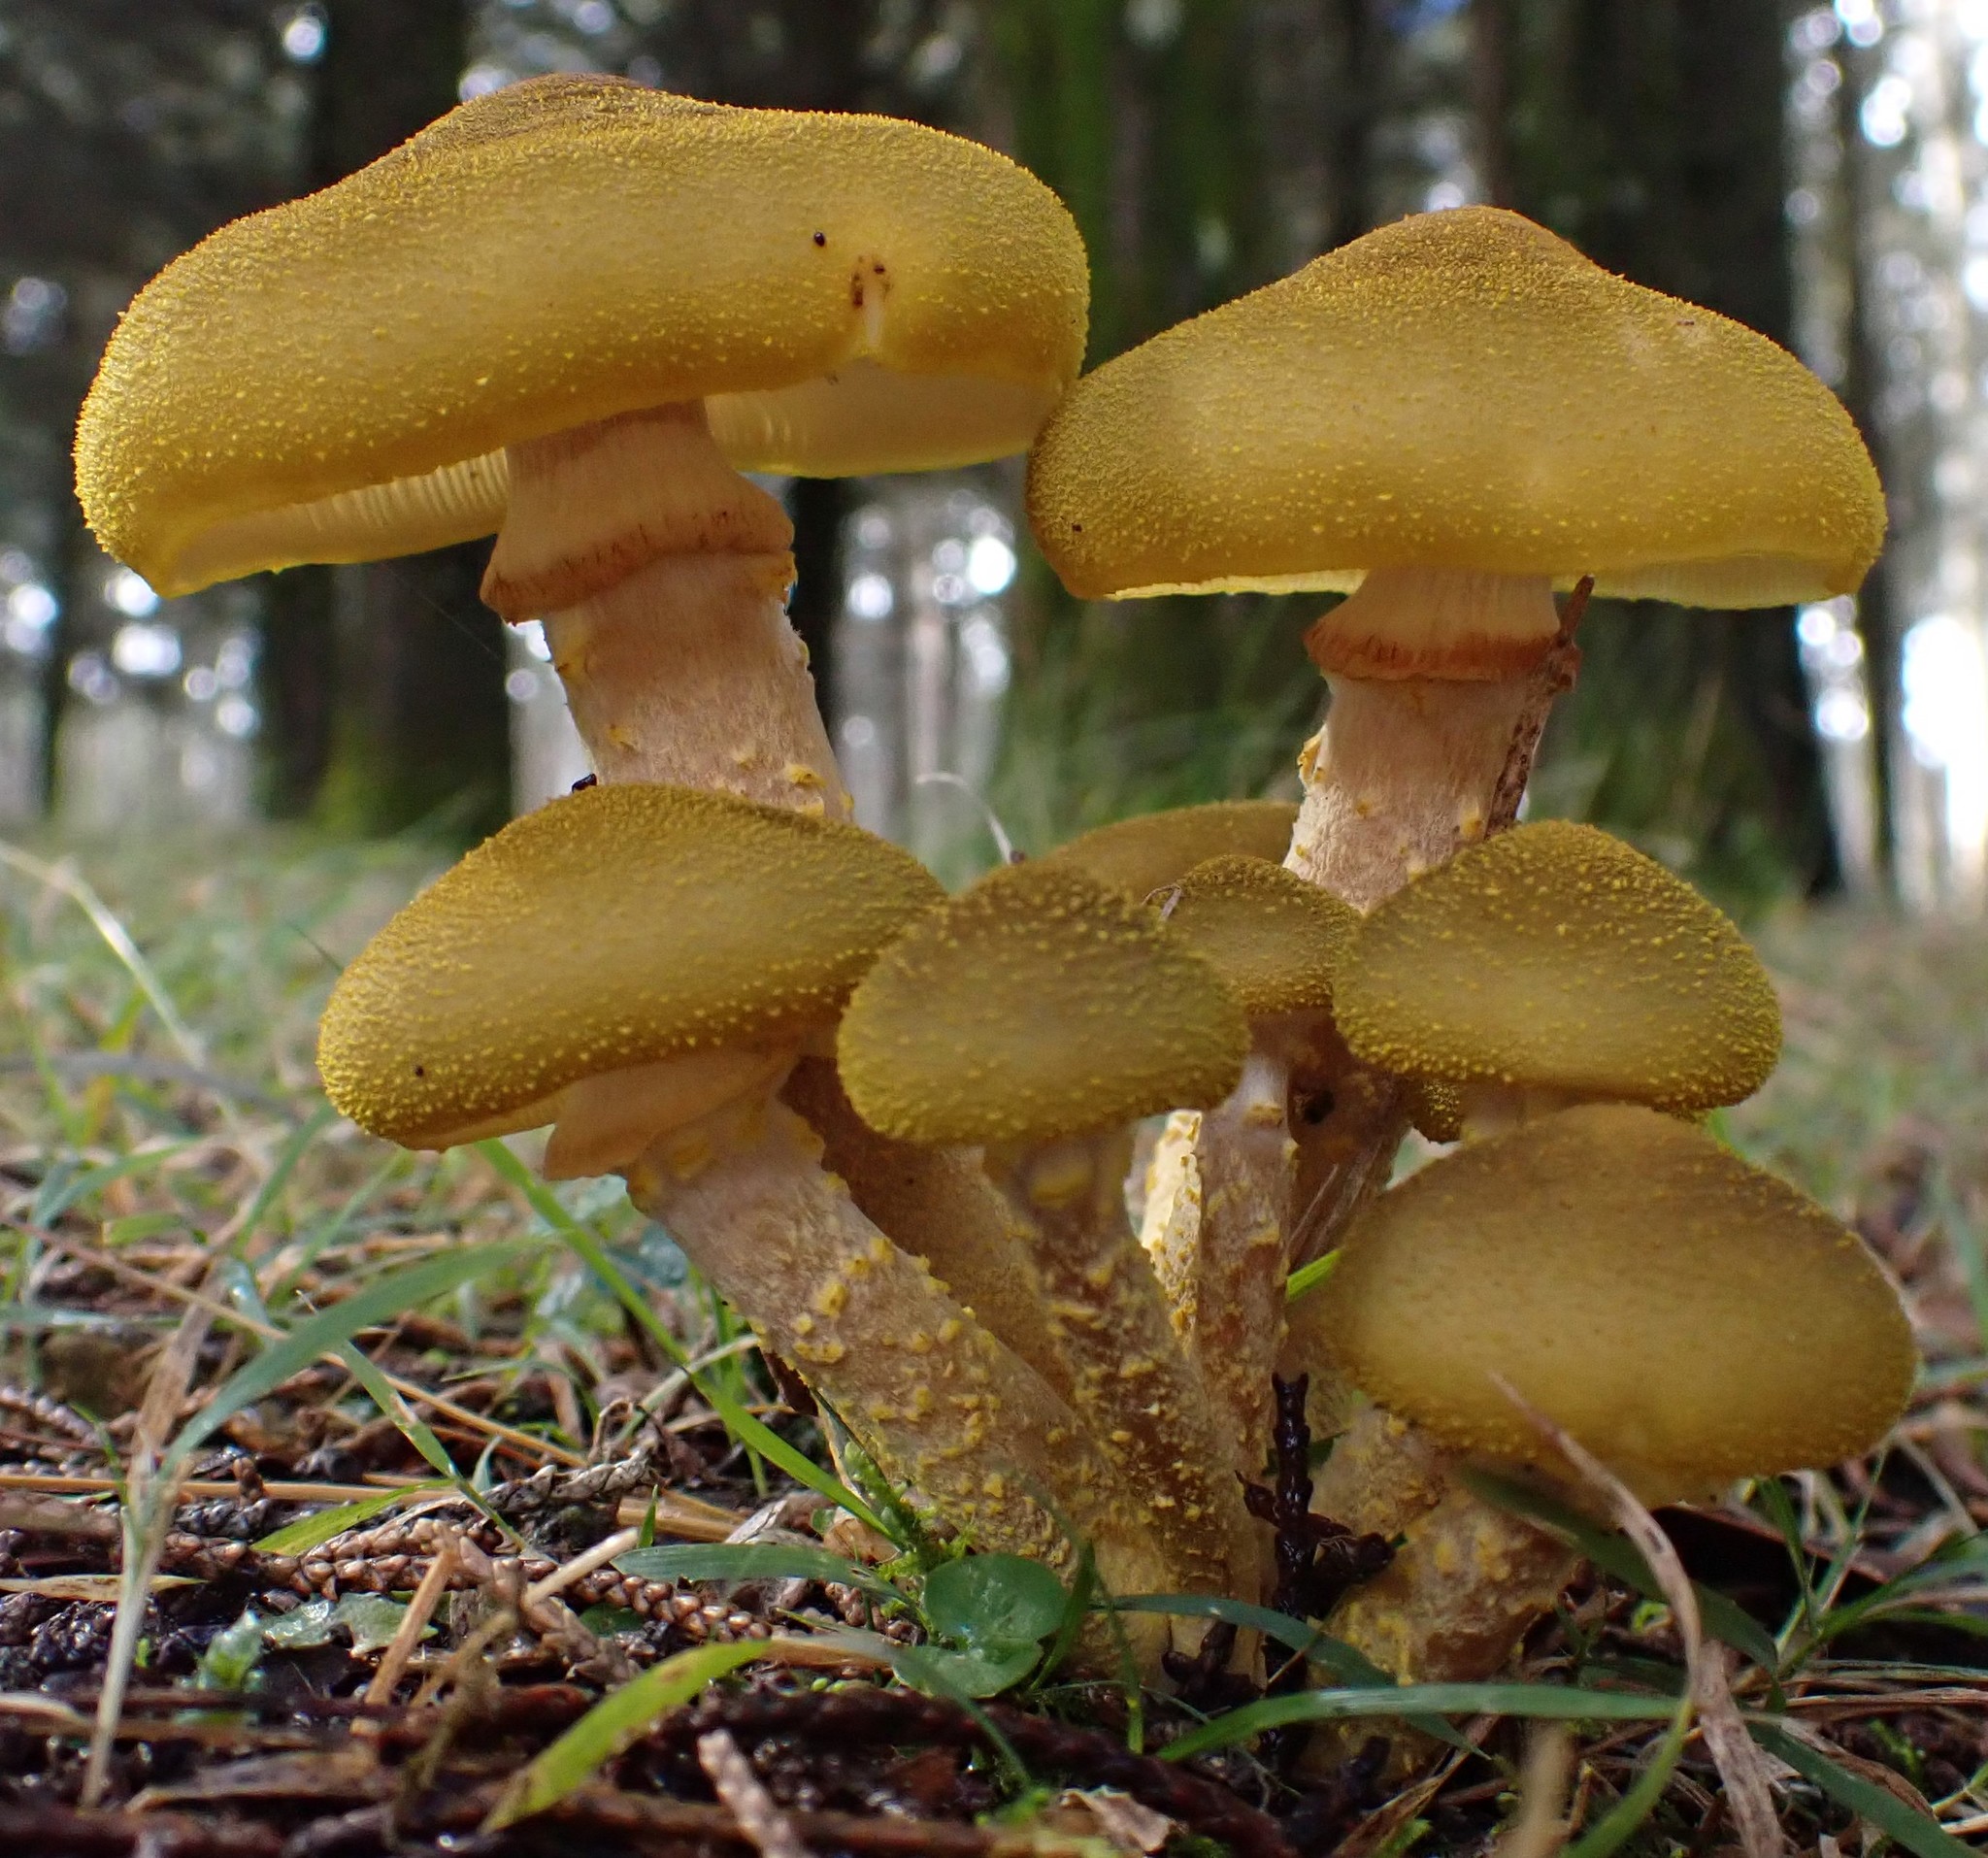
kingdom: Fungi
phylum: Basidiomycota
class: Agaricomycetes
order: Agaricales
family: Physalacriaceae
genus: Armillaria
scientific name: Armillaria luteobubalina
